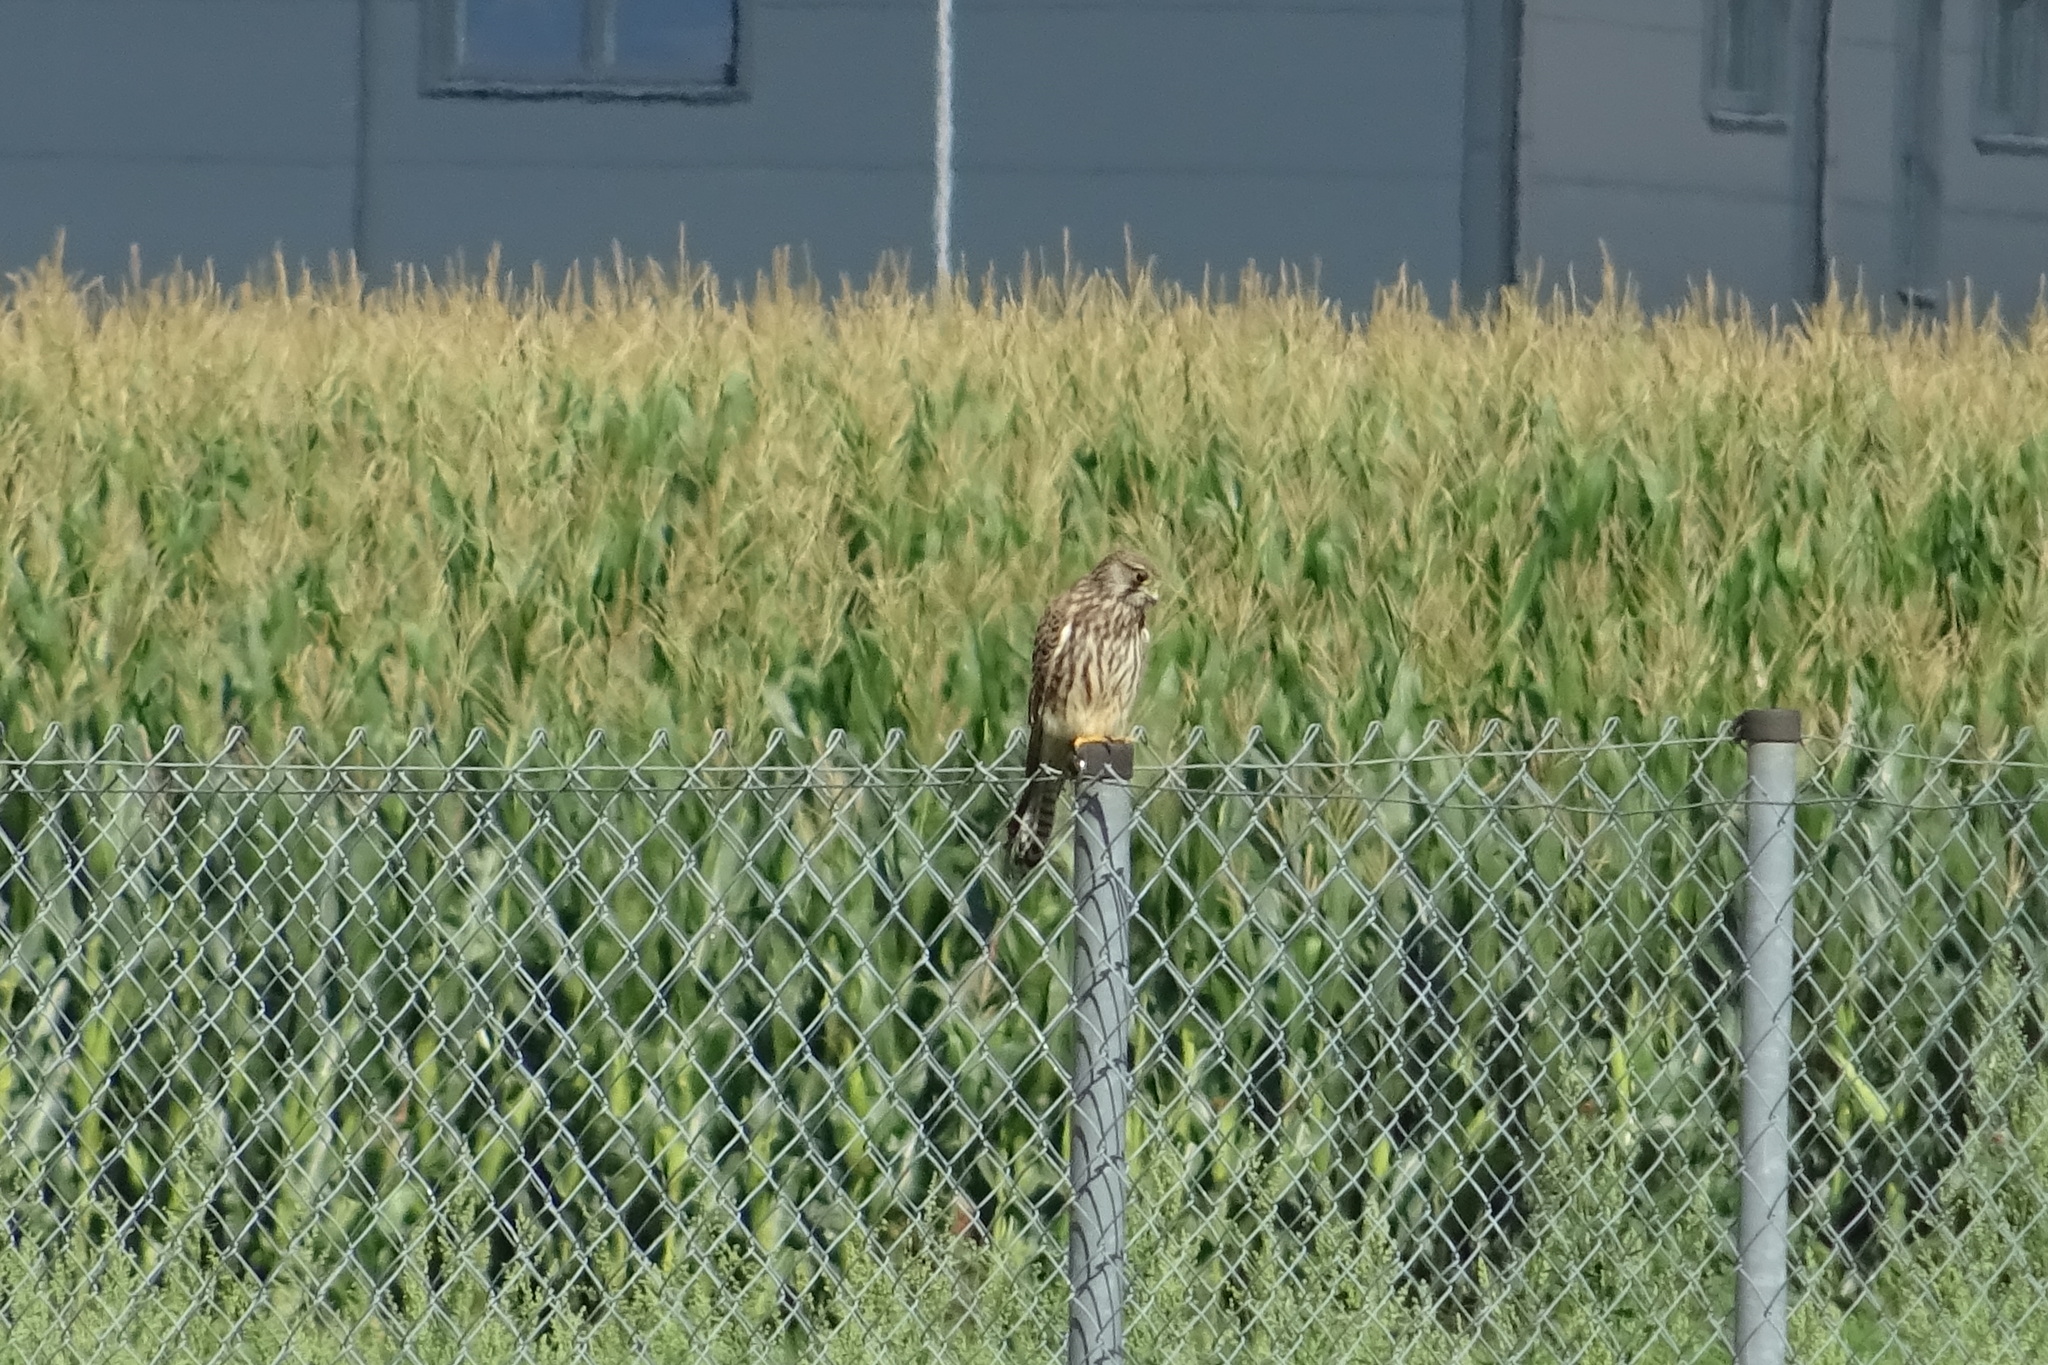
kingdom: Animalia
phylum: Chordata
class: Aves
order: Falconiformes
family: Falconidae
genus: Falco
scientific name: Falco tinnunculus
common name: Common kestrel
